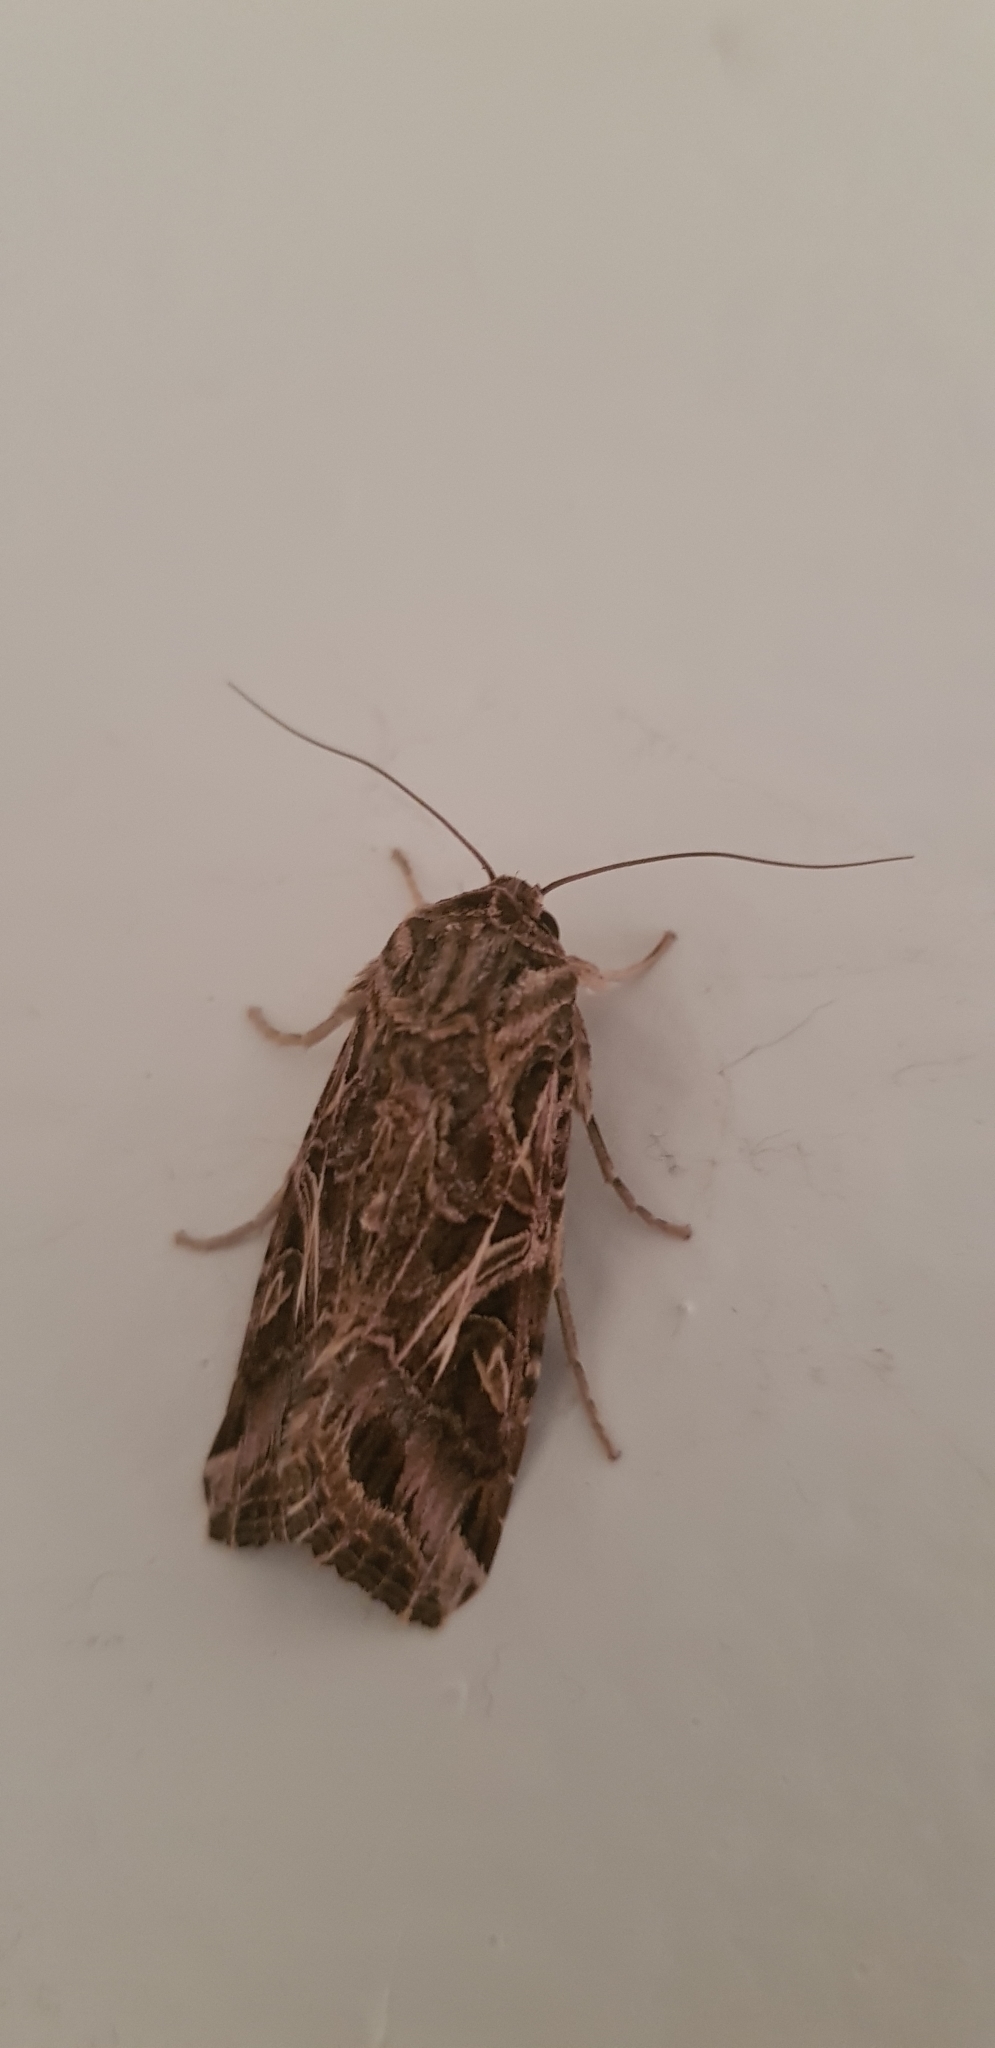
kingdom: Animalia
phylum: Arthropoda
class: Insecta
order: Lepidoptera
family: Noctuidae
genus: Spodoptera
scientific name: Spodoptera litura
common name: Asian cotton leafworm
